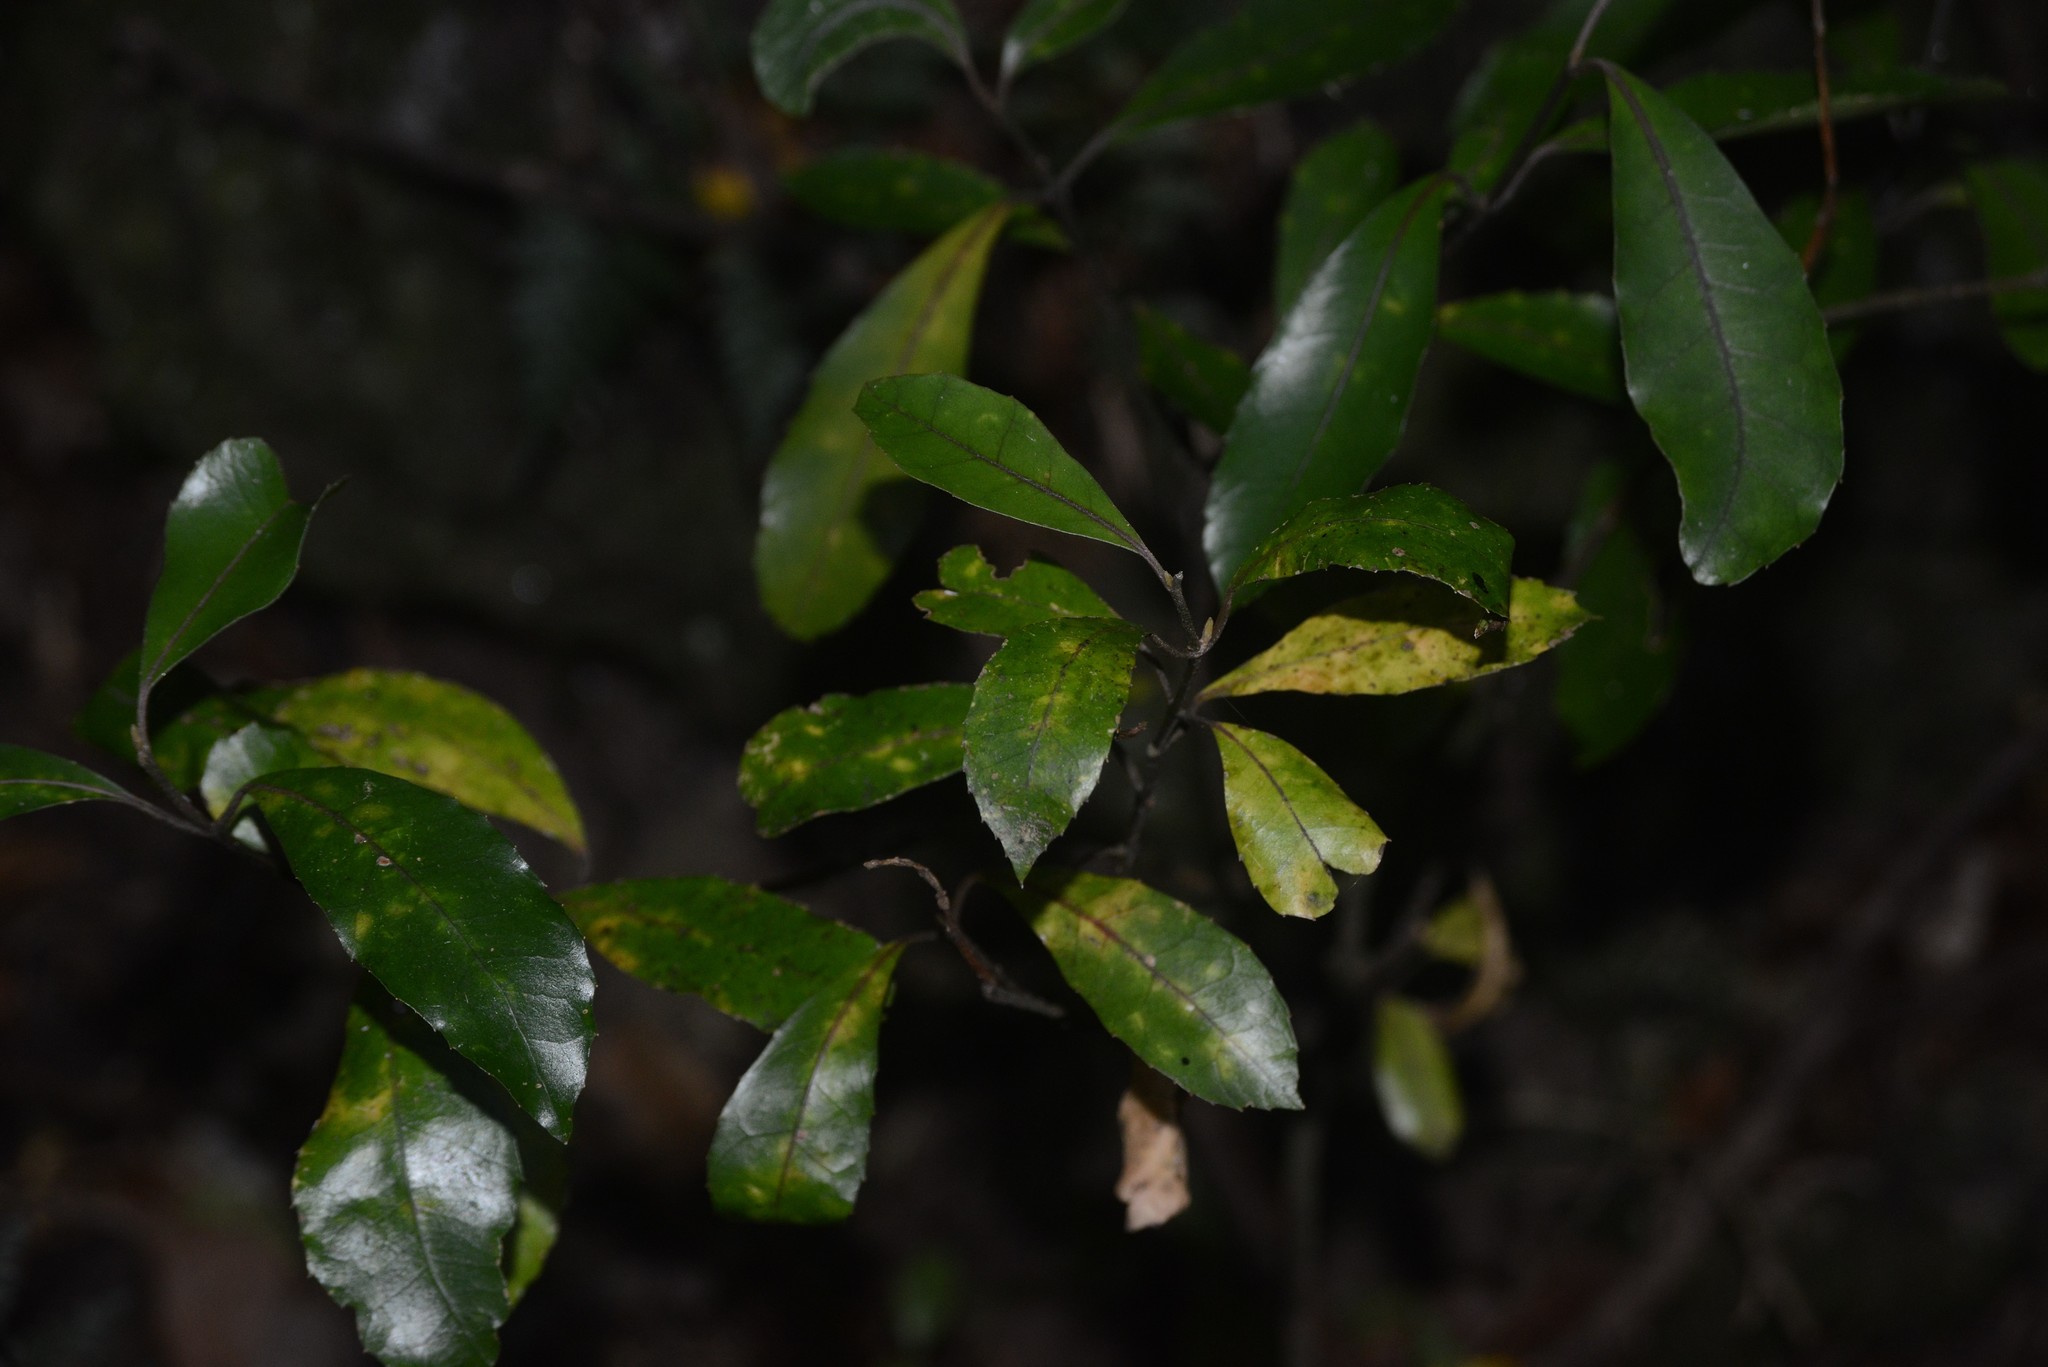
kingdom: Plantae
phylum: Tracheophyta
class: Magnoliopsida
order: Laurales
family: Monimiaceae
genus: Hedycarya
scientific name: Hedycarya arborea
